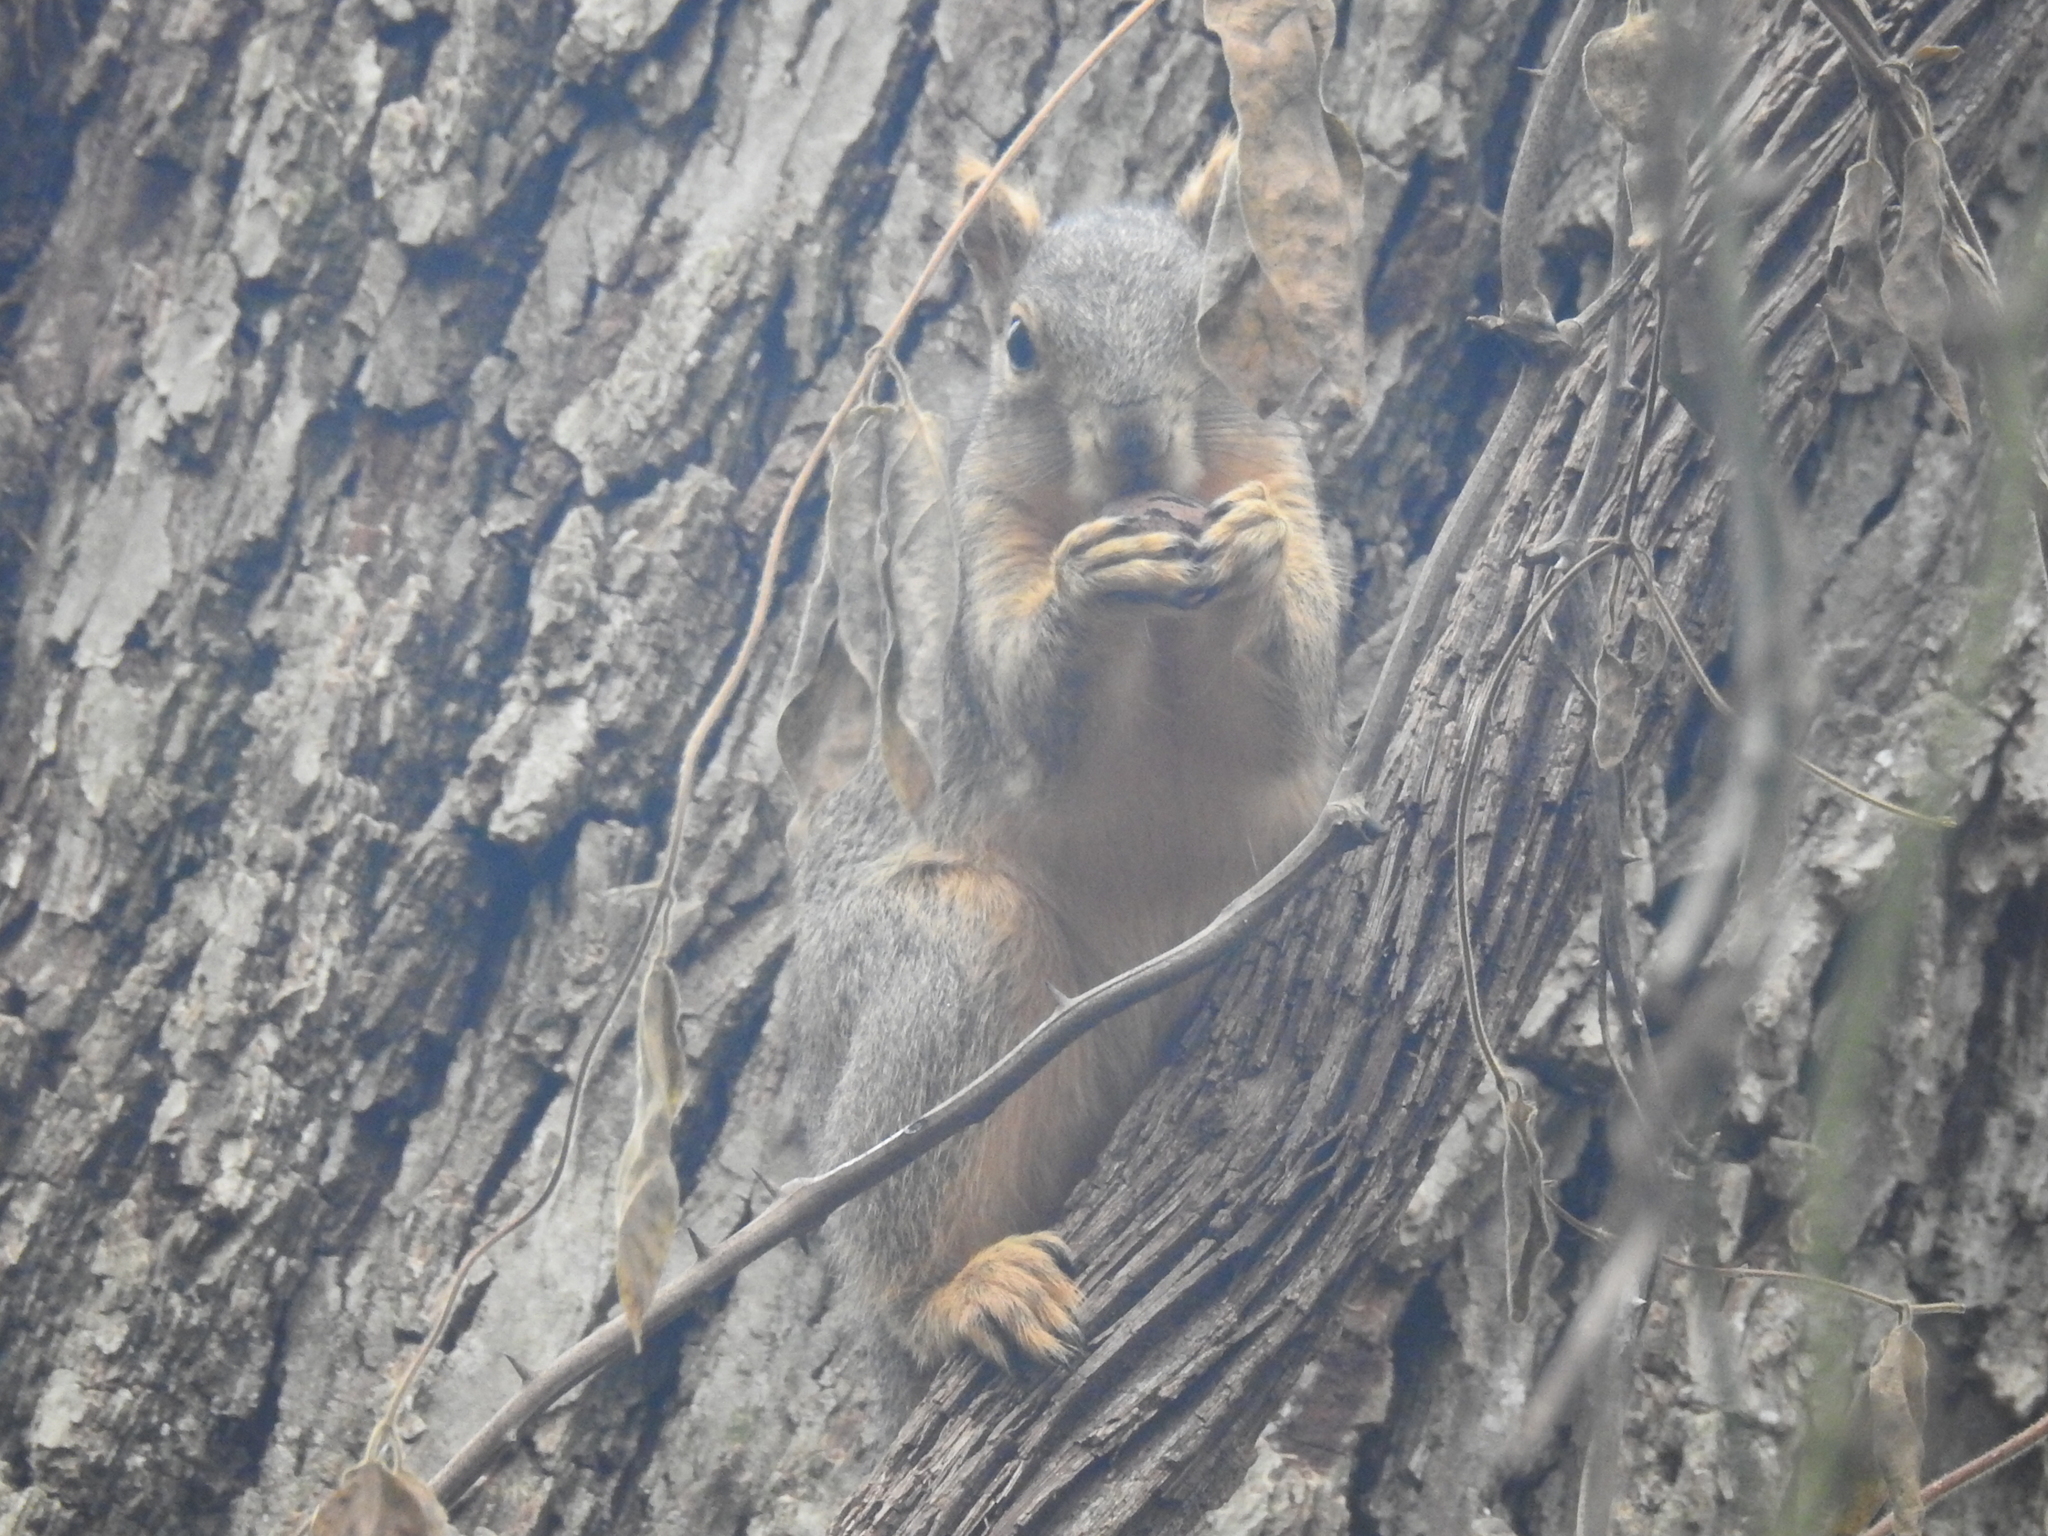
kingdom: Animalia
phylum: Chordata
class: Mammalia
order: Rodentia
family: Sciuridae
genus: Sciurus
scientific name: Sciurus niger
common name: Fox squirrel
